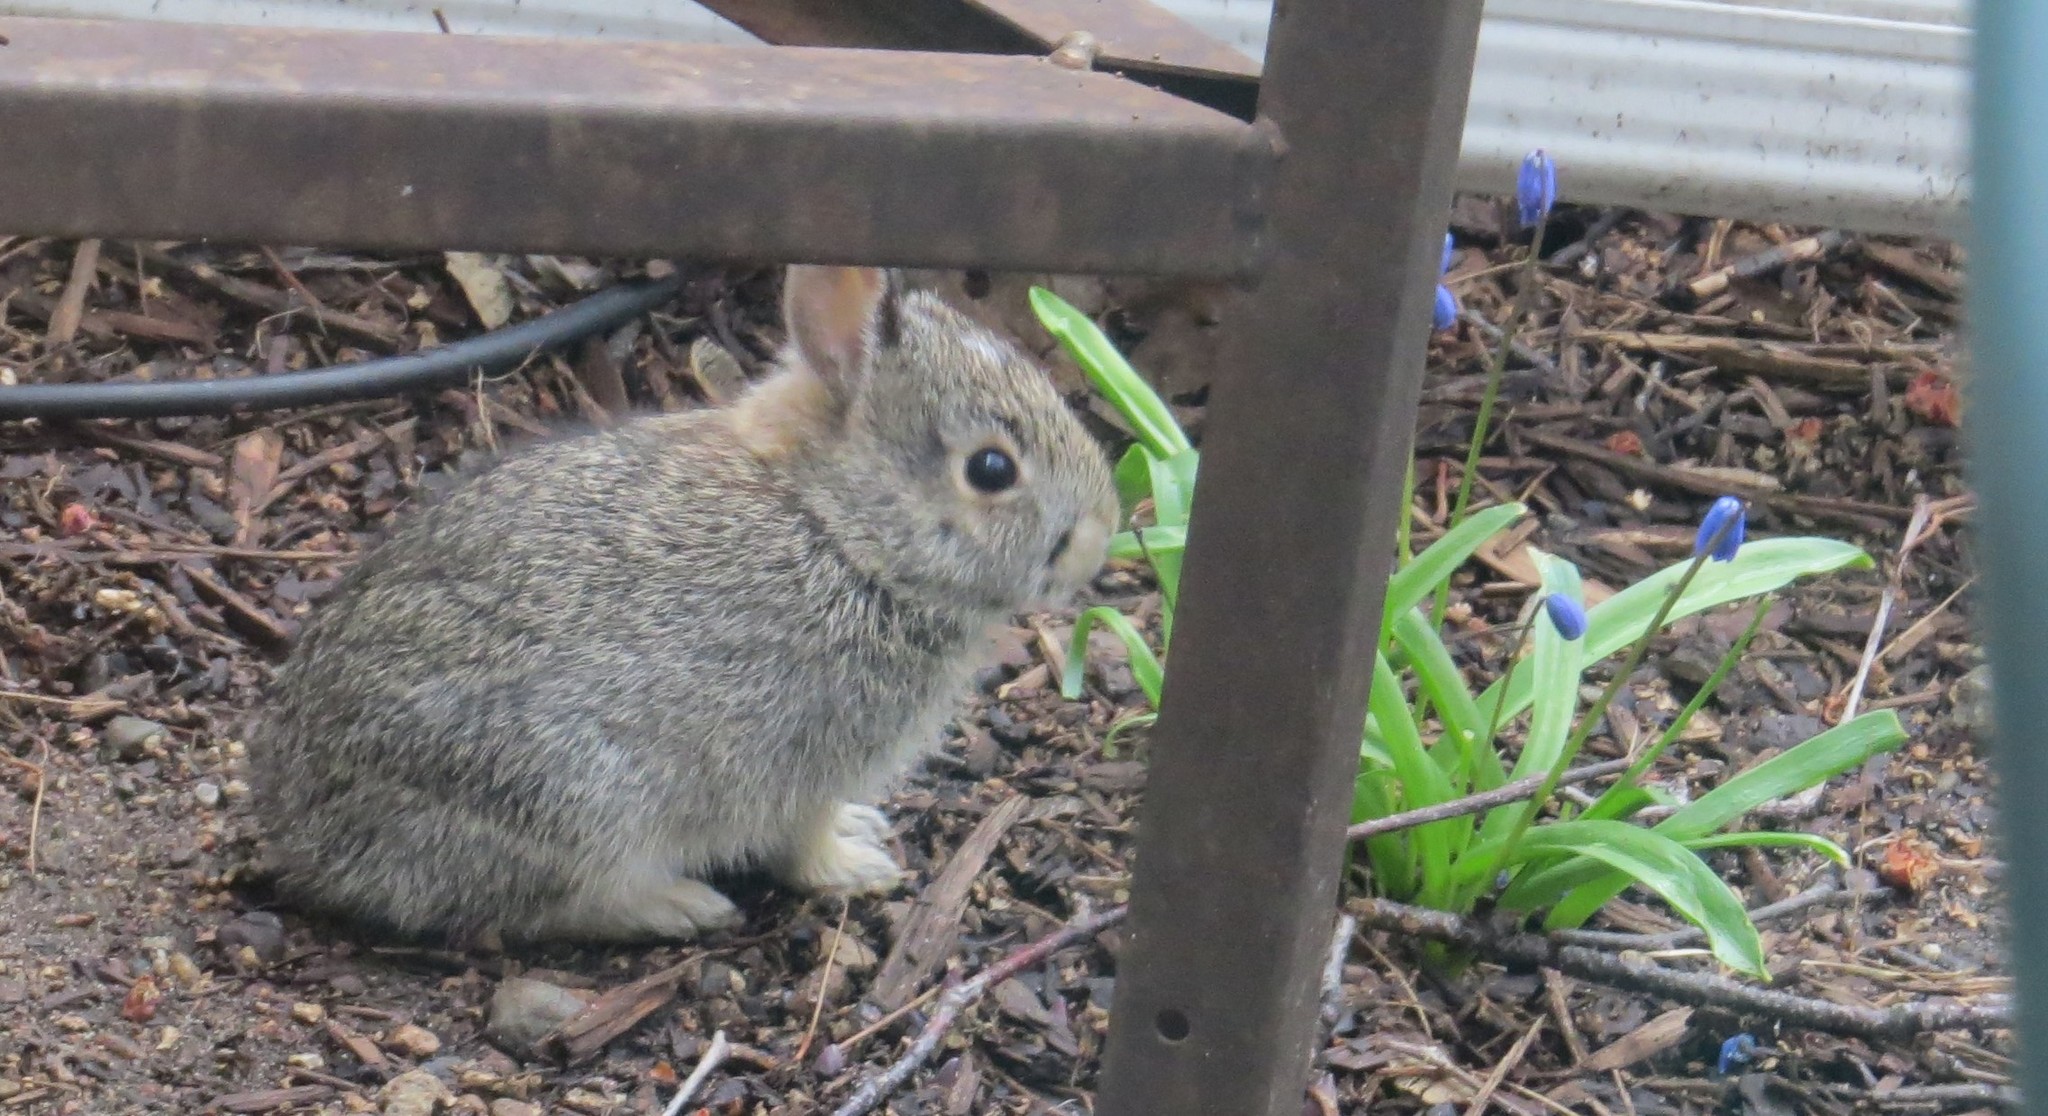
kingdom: Animalia
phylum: Chordata
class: Mammalia
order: Lagomorpha
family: Leporidae
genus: Sylvilagus
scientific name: Sylvilagus floridanus
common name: Eastern cottontail
